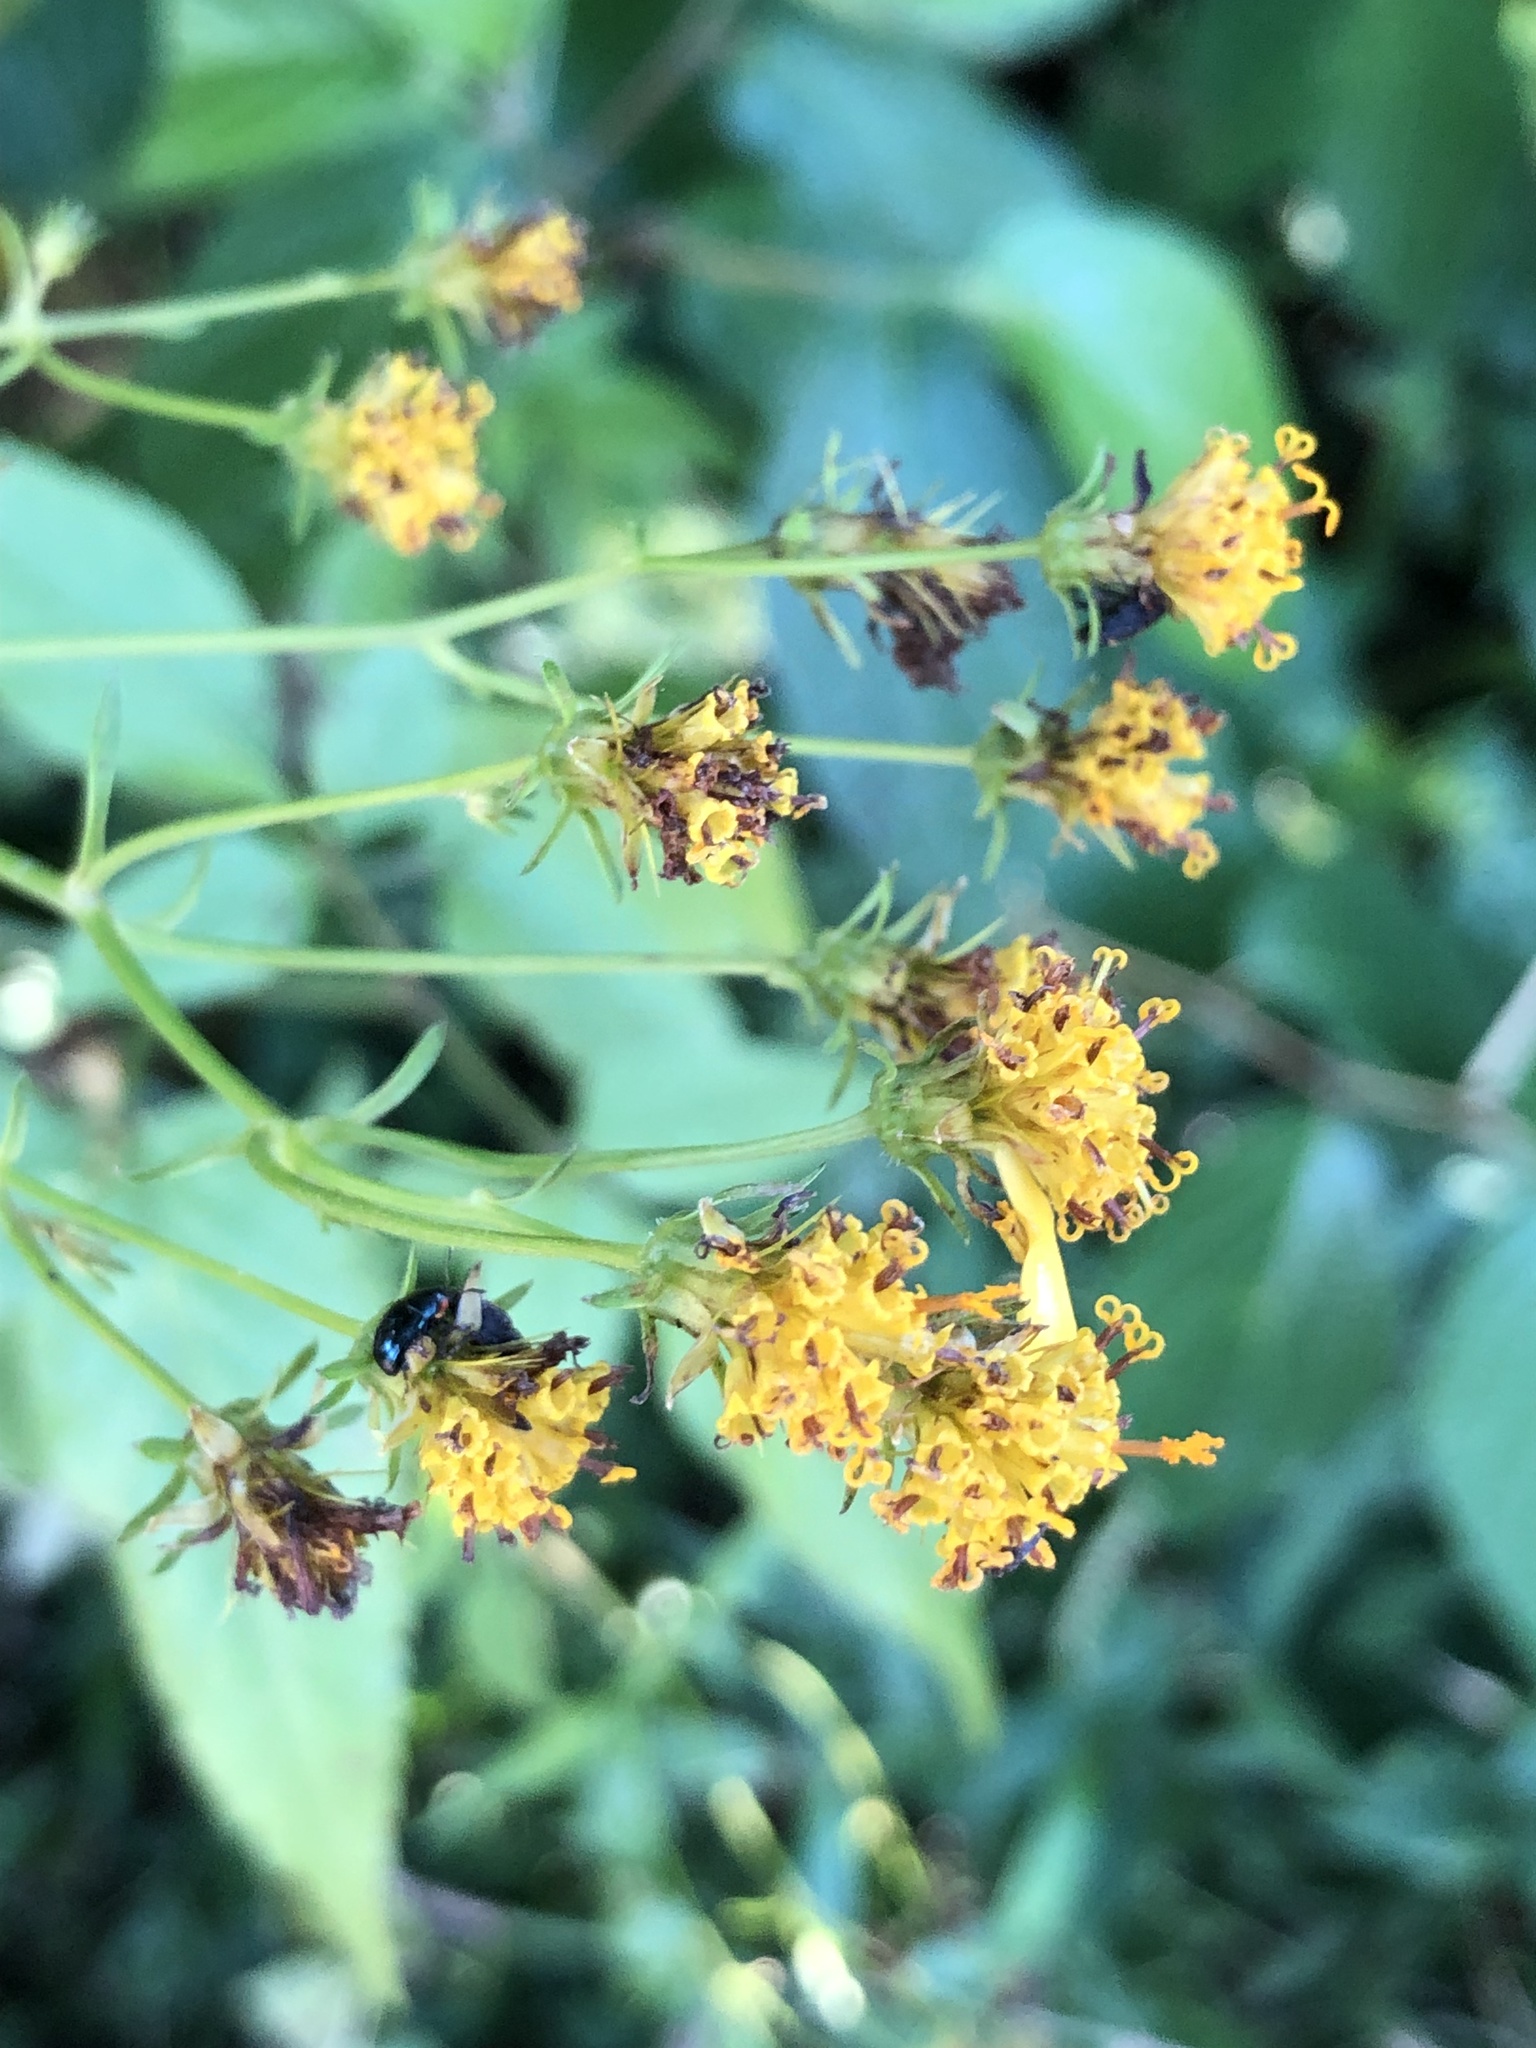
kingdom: Plantae
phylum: Tracheophyta
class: Magnoliopsida
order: Asterales
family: Asteraceae
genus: Bidens
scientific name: Bidens reptans
